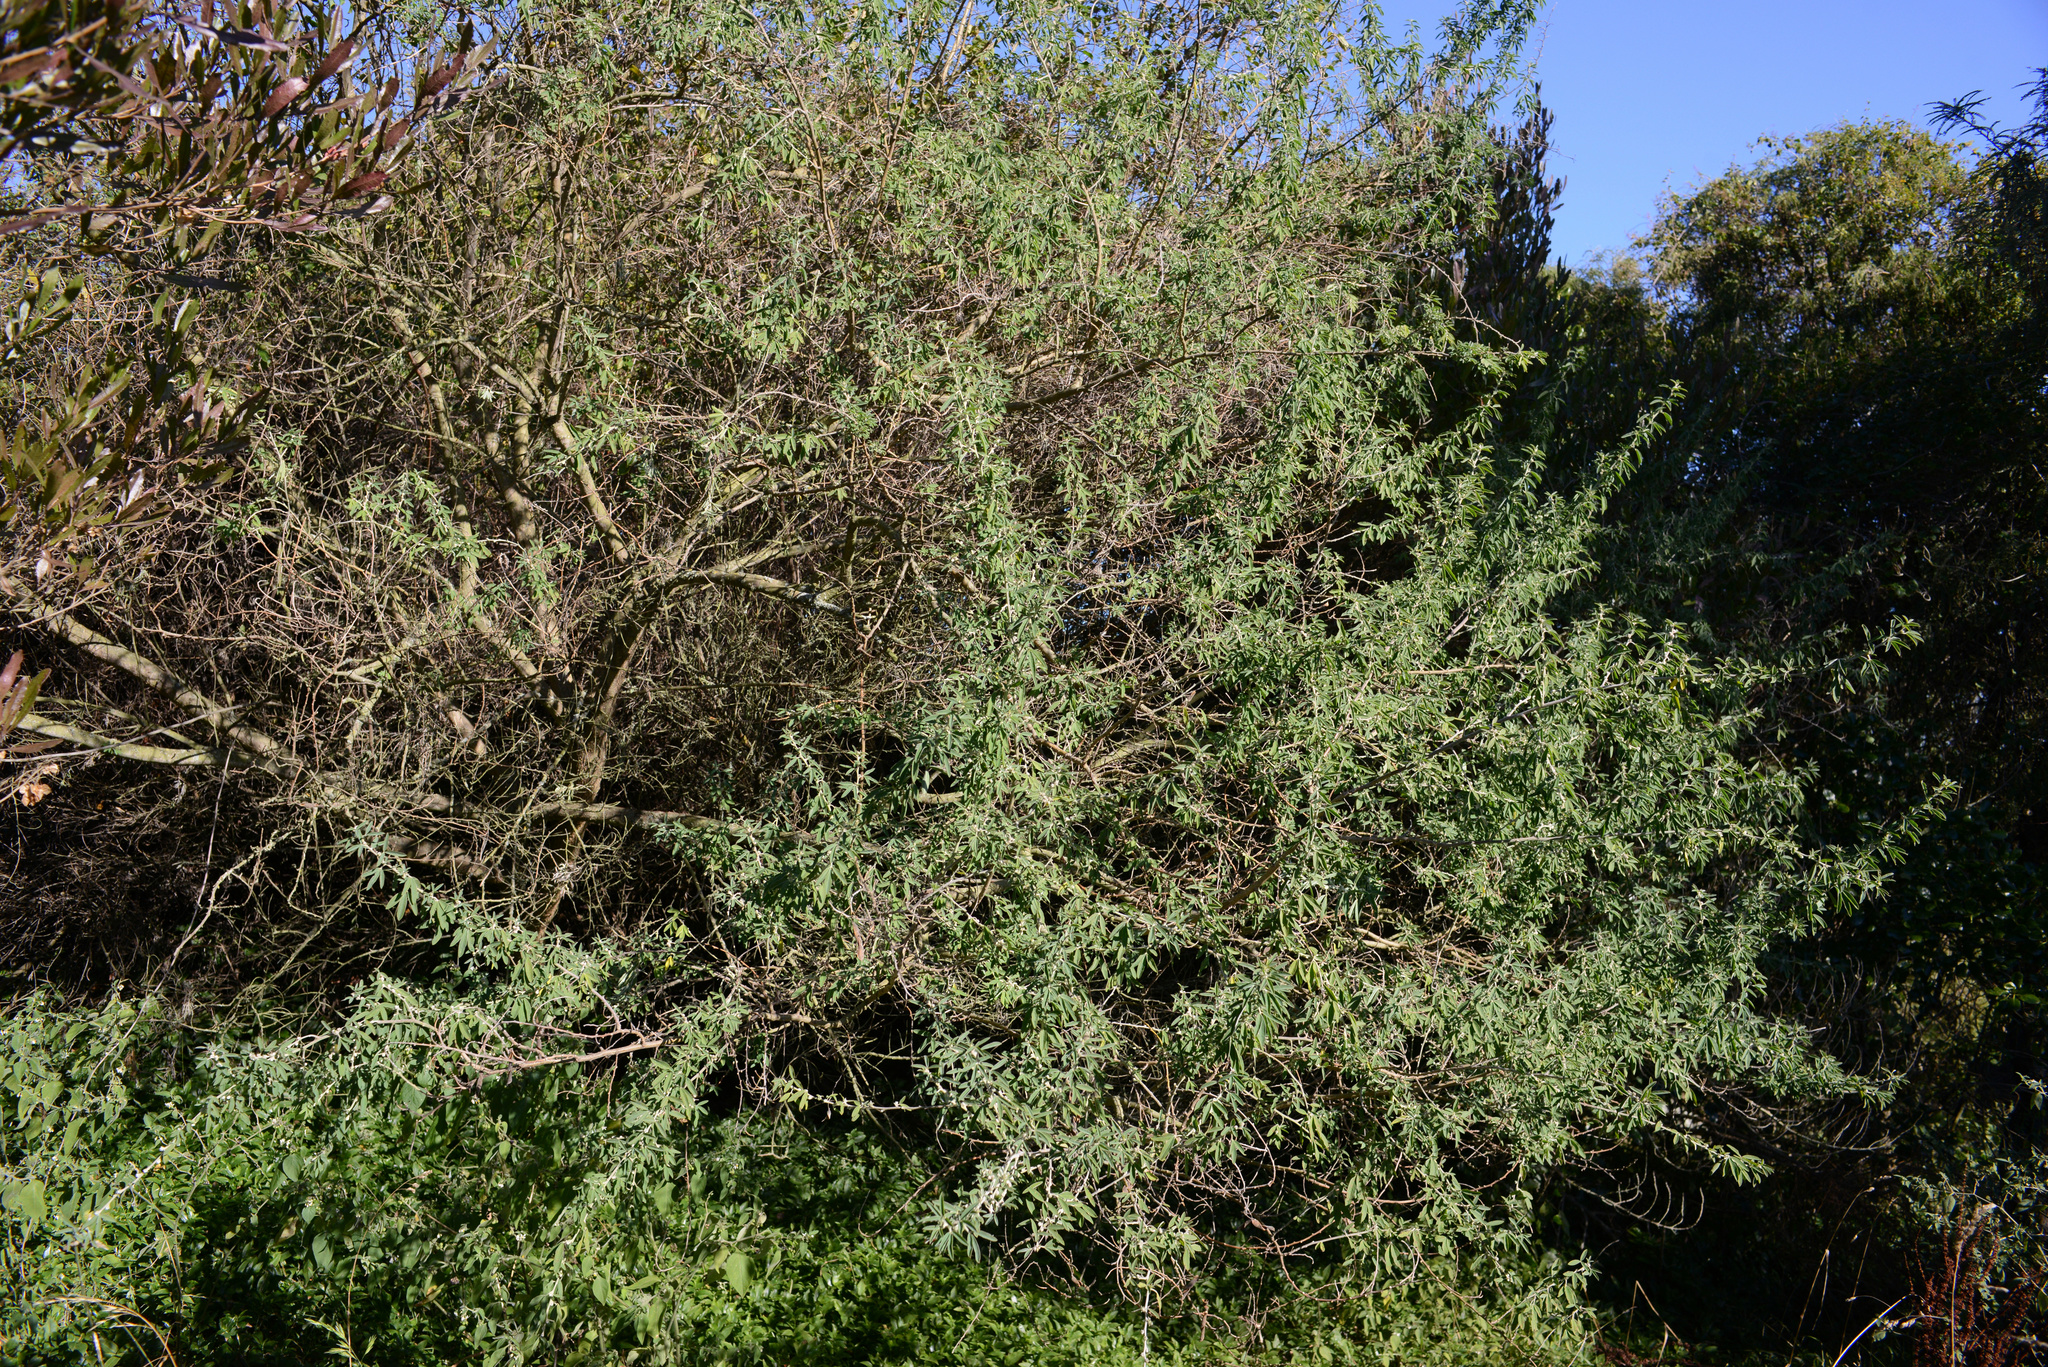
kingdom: Plantae
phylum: Tracheophyta
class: Magnoliopsida
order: Fabales
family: Fabaceae
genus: Chamaecytisus
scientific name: Chamaecytisus prolifer
